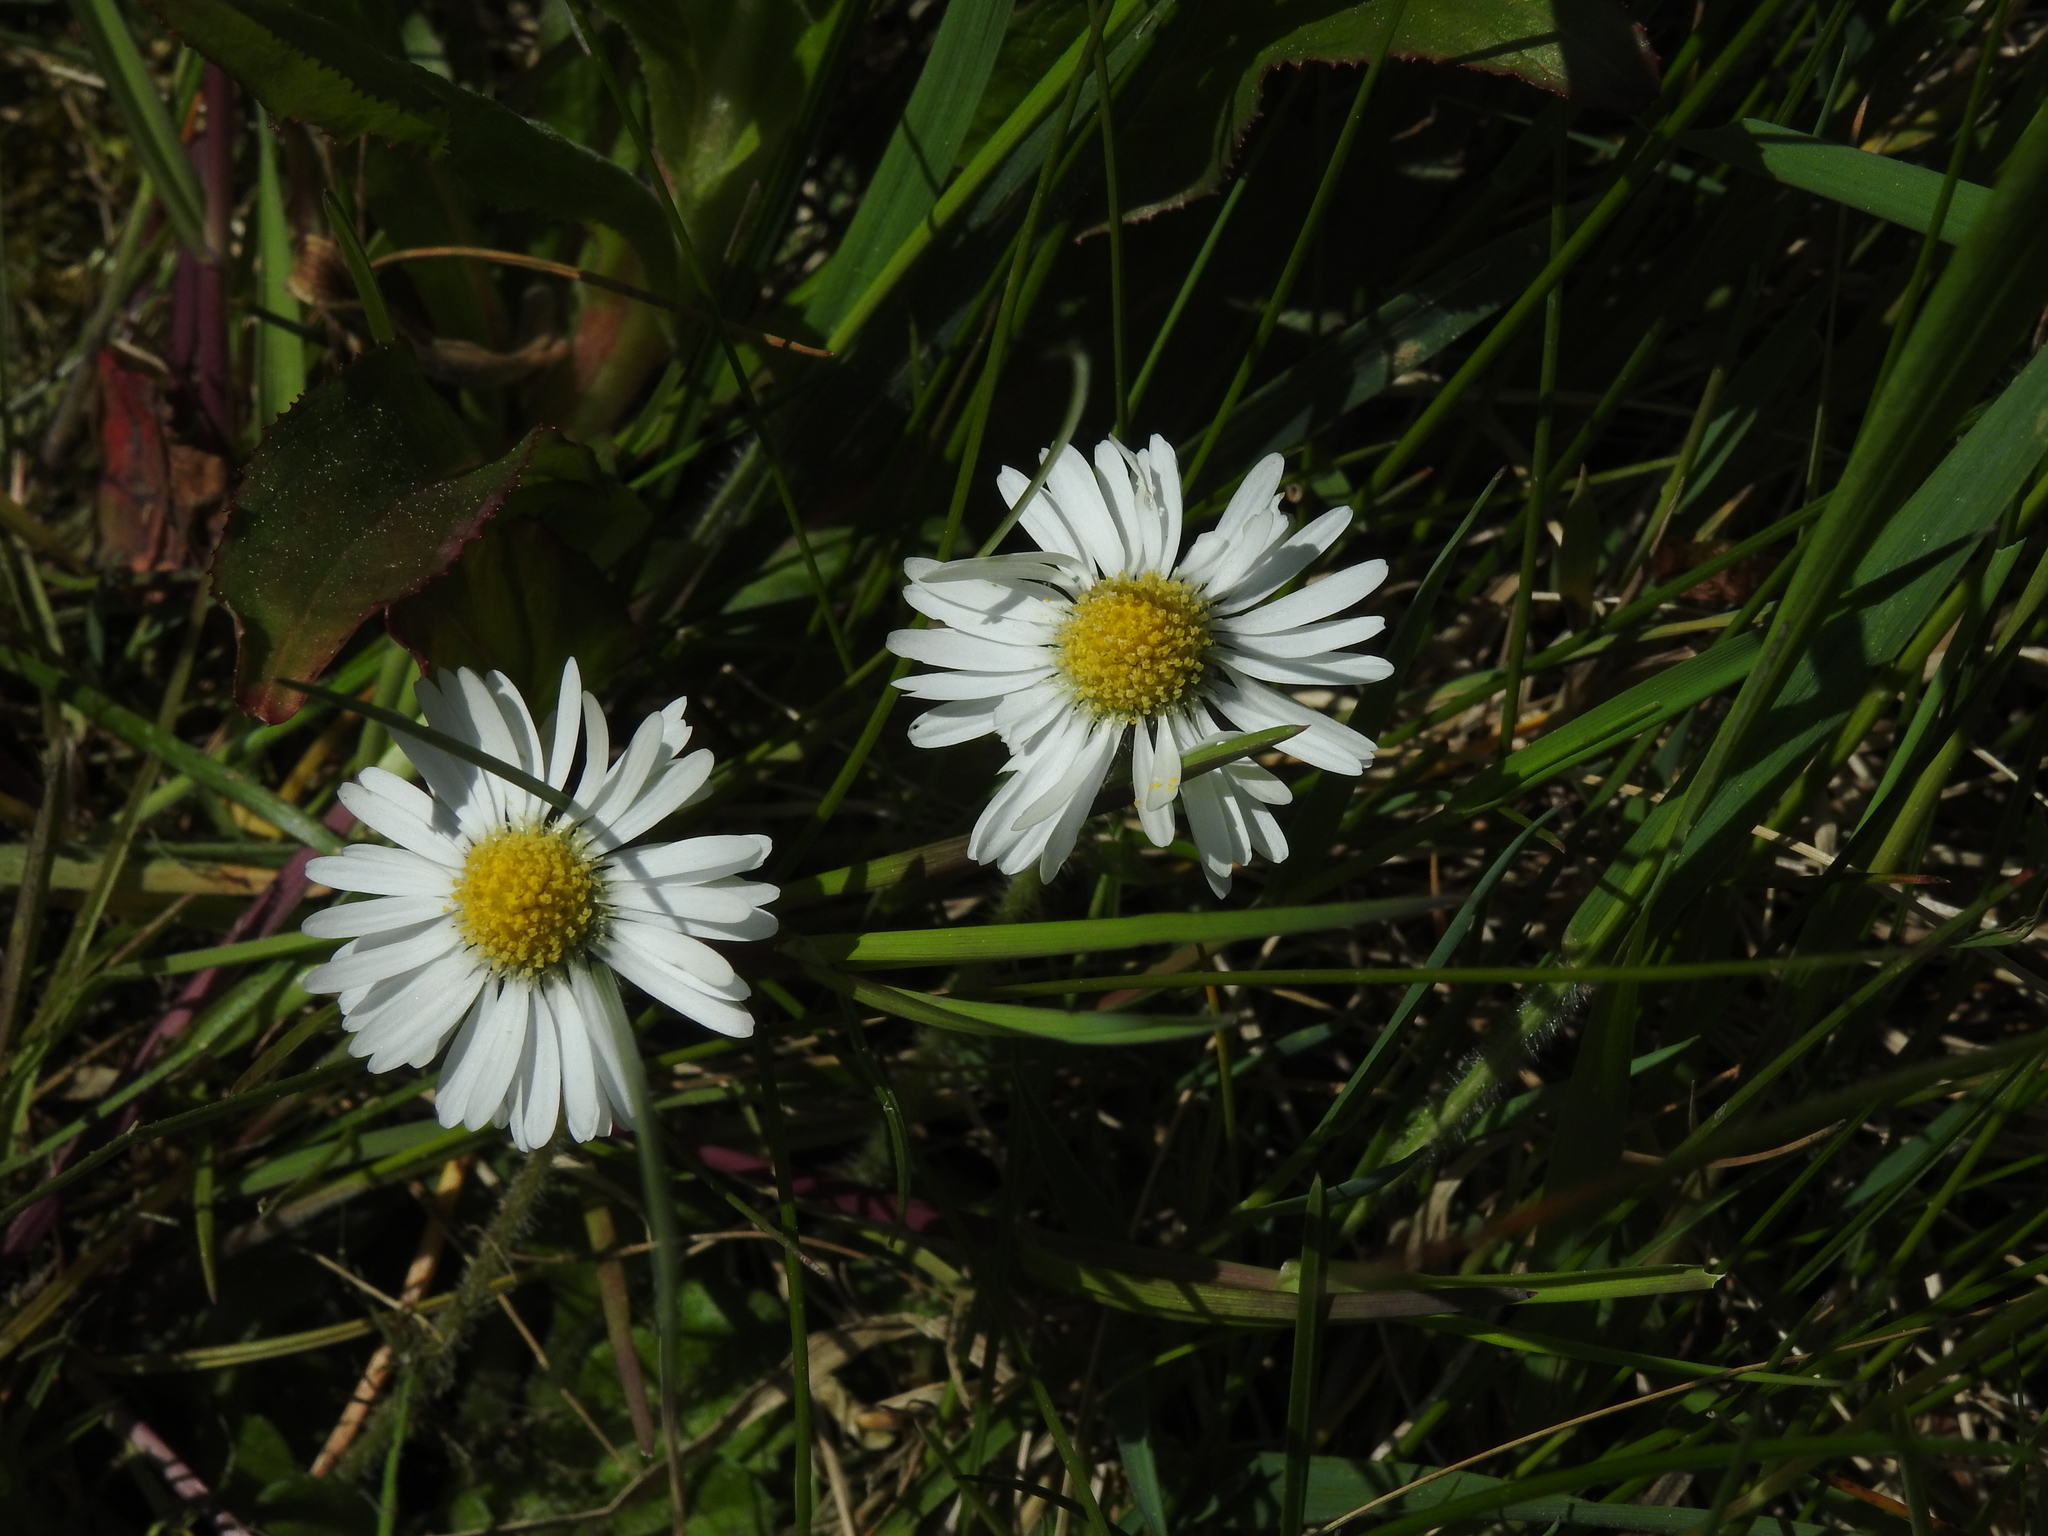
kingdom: Plantae
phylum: Tracheophyta
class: Magnoliopsida
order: Asterales
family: Asteraceae
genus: Bellis
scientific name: Bellis perennis
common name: Lawndaisy
